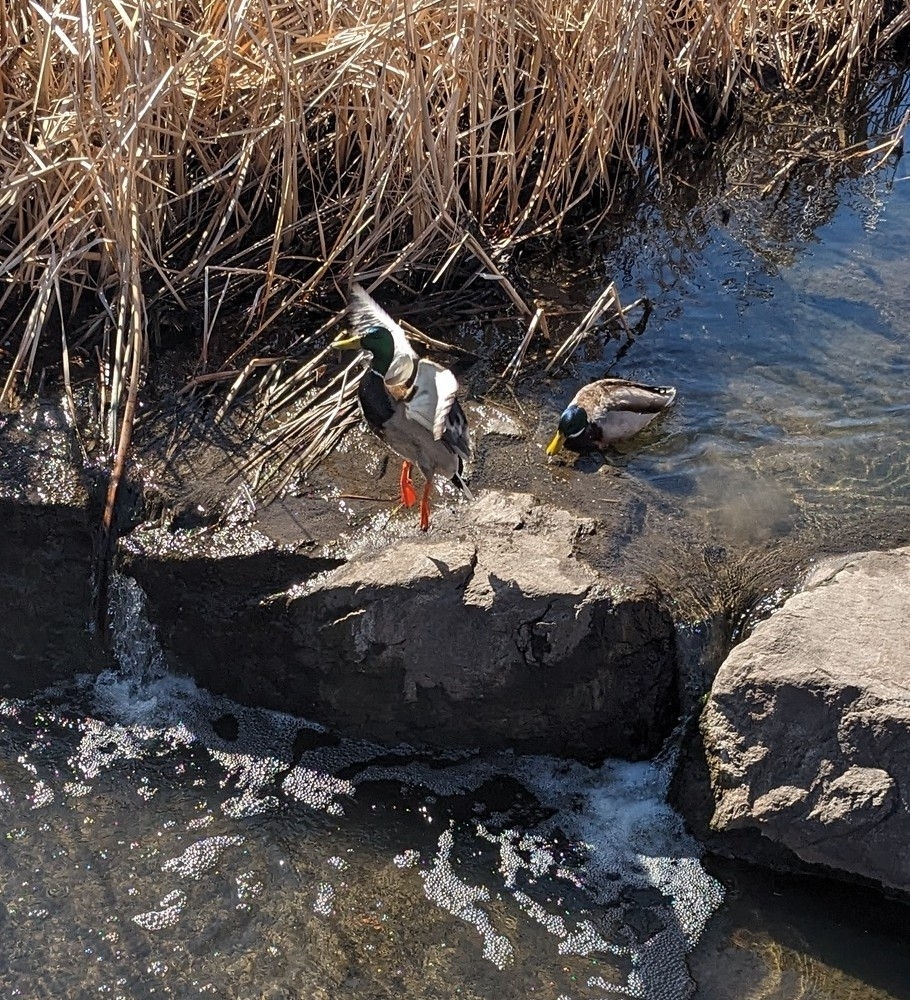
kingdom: Animalia
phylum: Chordata
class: Aves
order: Anseriformes
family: Anatidae
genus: Anas
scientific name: Anas platyrhynchos
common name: Mallard
